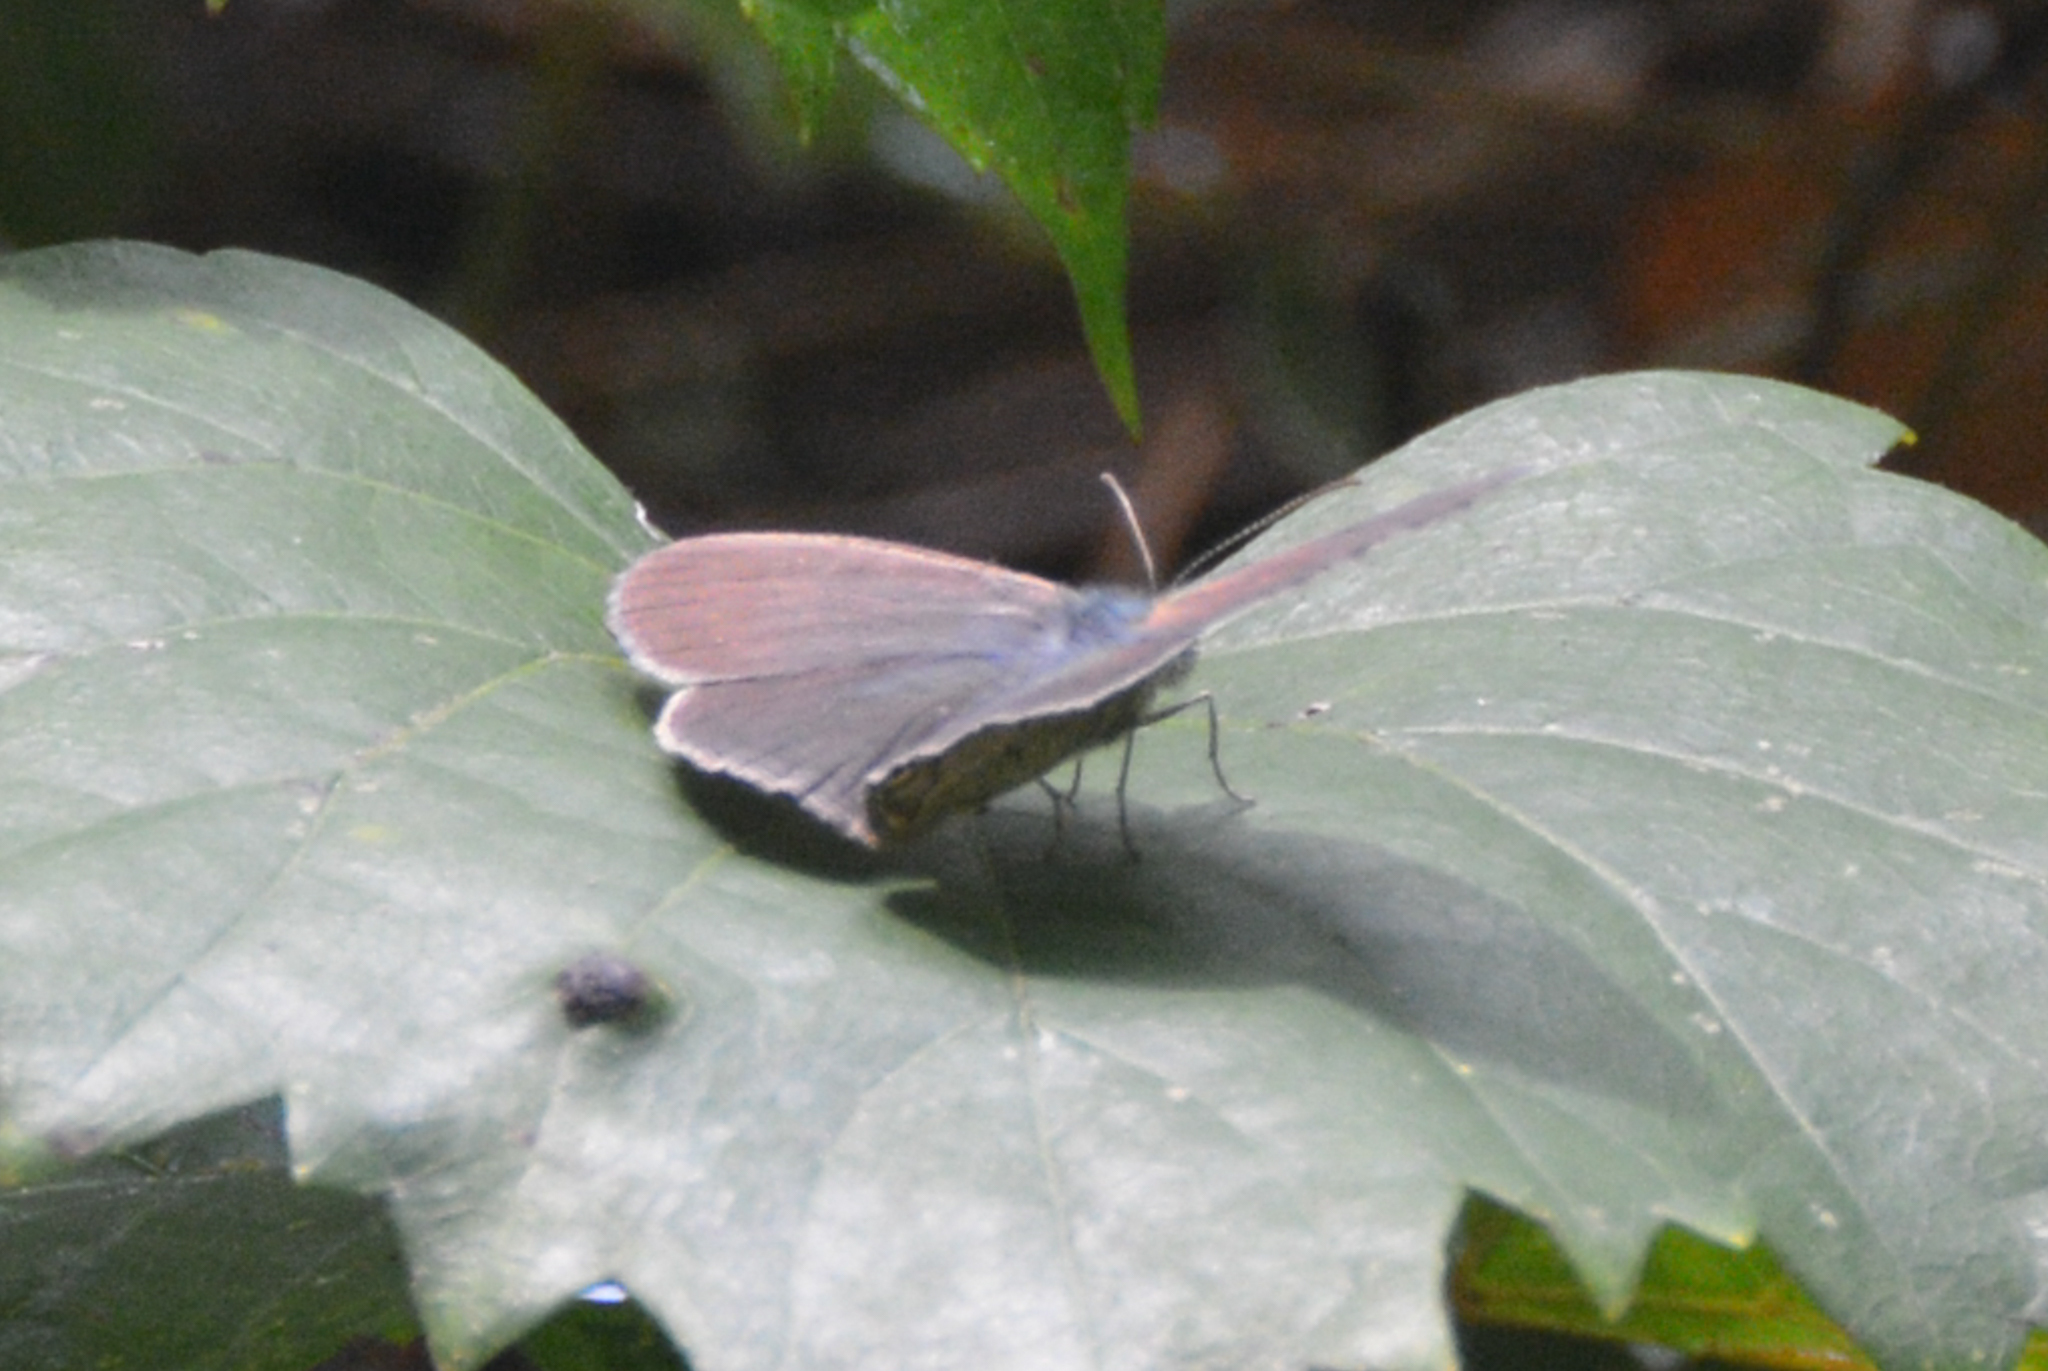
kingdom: Animalia
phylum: Arthropoda
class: Insecta
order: Lepidoptera
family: Nymphalidae
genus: Hermeuptychia
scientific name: Hermeuptychia hermes
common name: Hermes satyr
